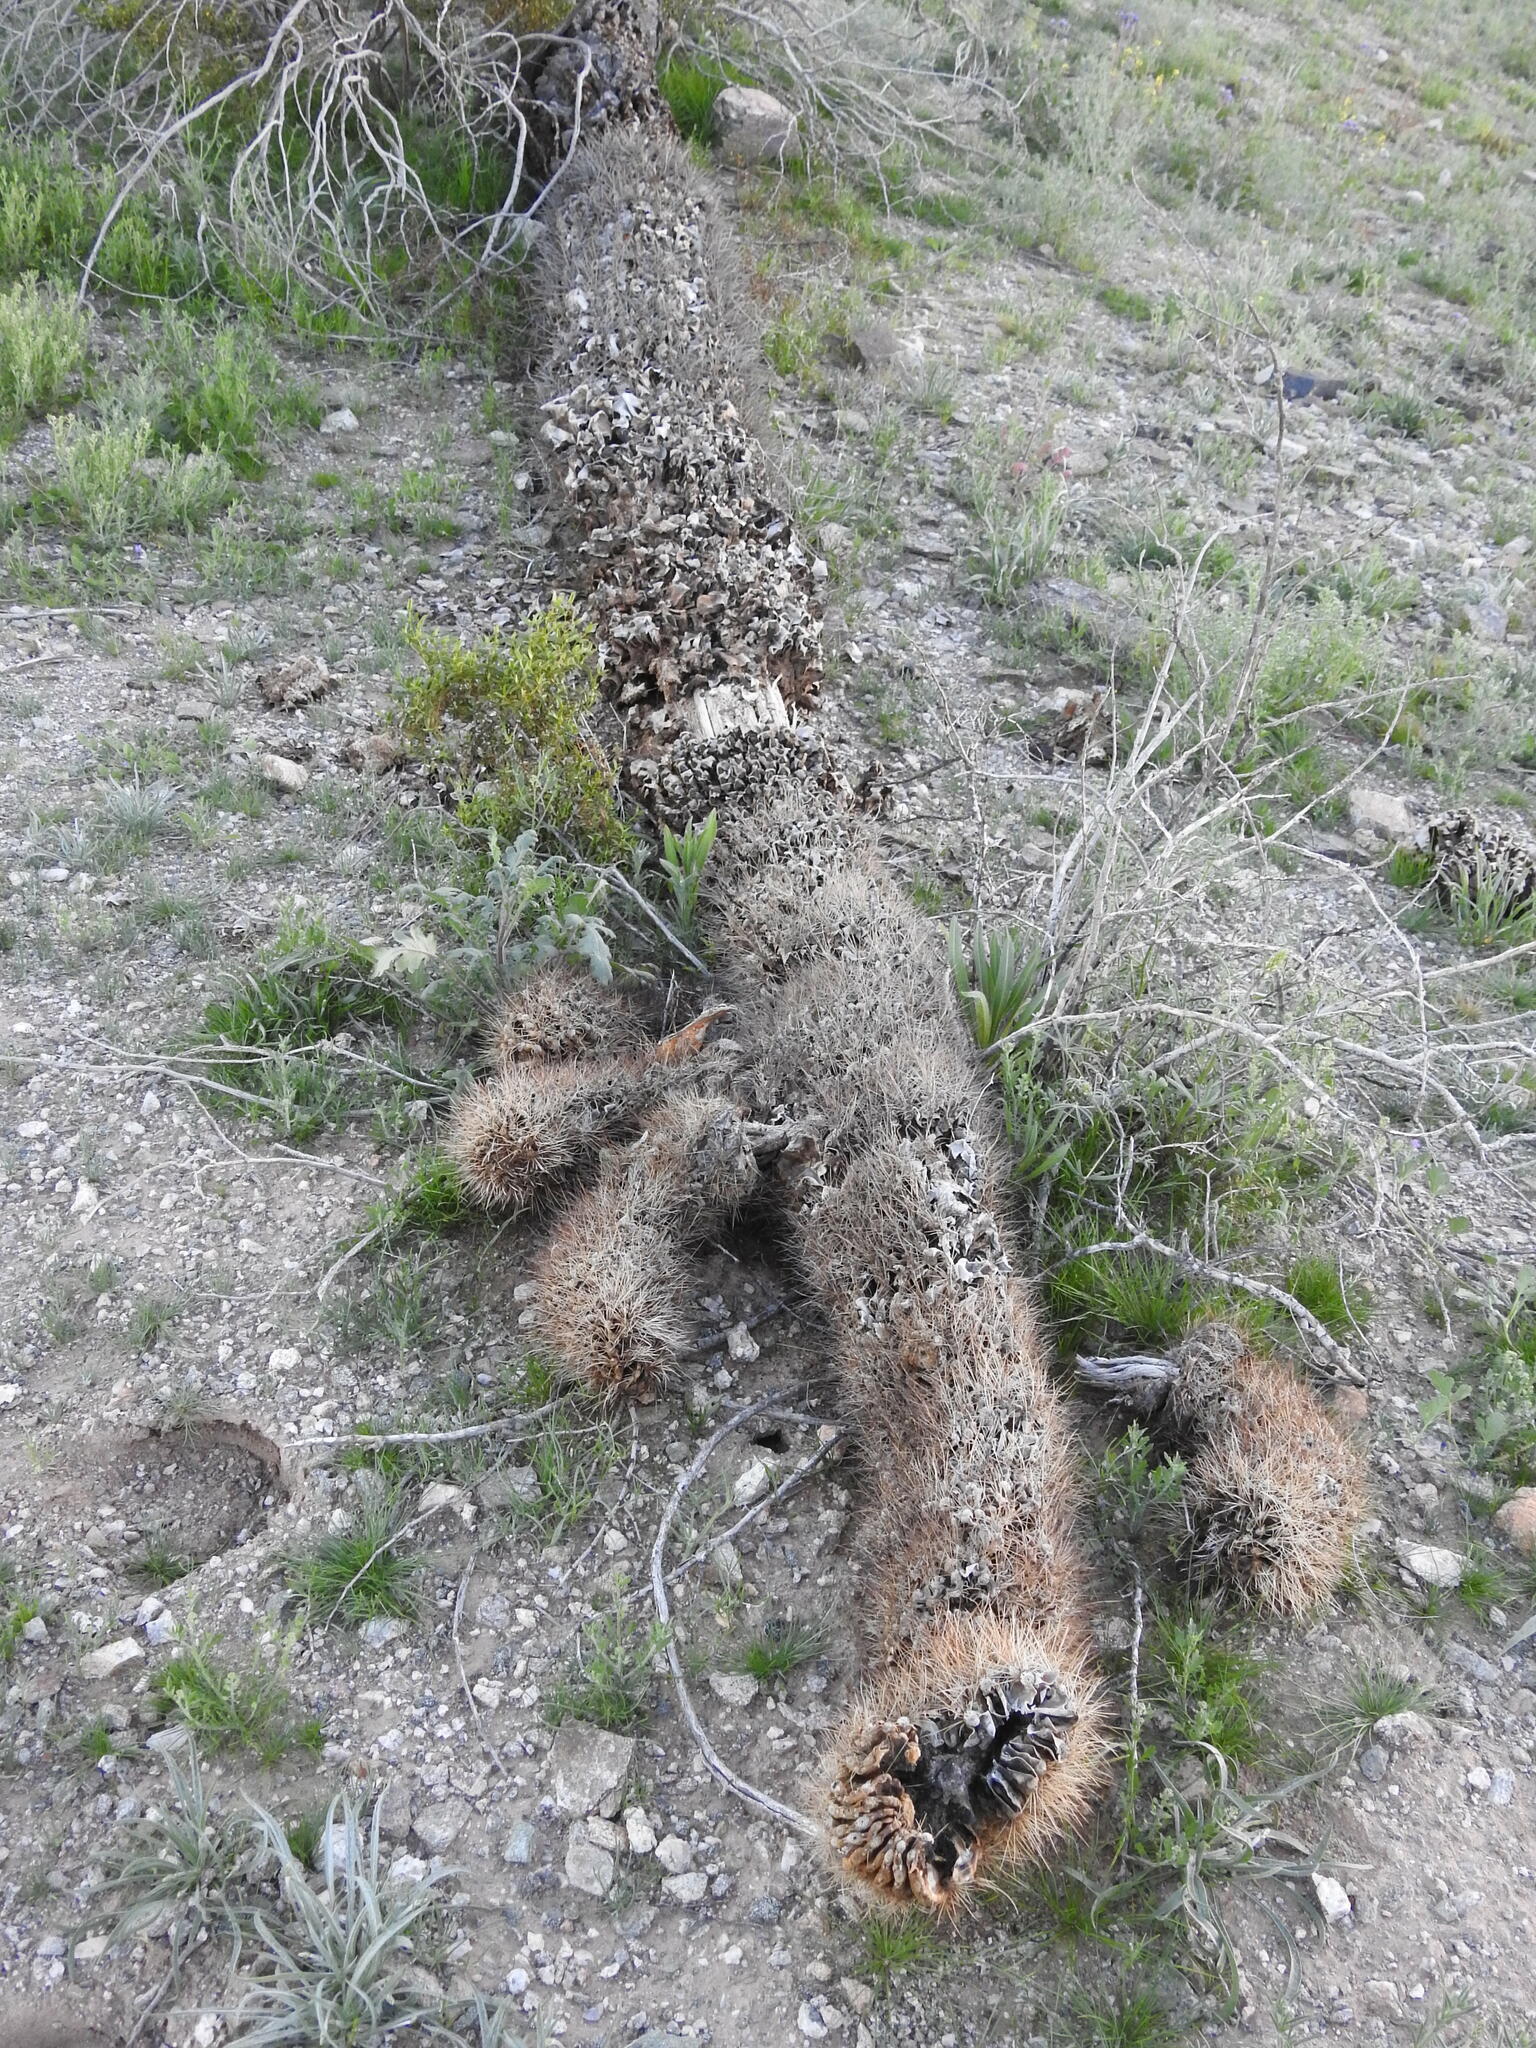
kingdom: Plantae
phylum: Tracheophyta
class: Magnoliopsida
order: Caryophyllales
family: Cactaceae
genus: Carnegiea
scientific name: Carnegiea gigantea
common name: Saguaro
